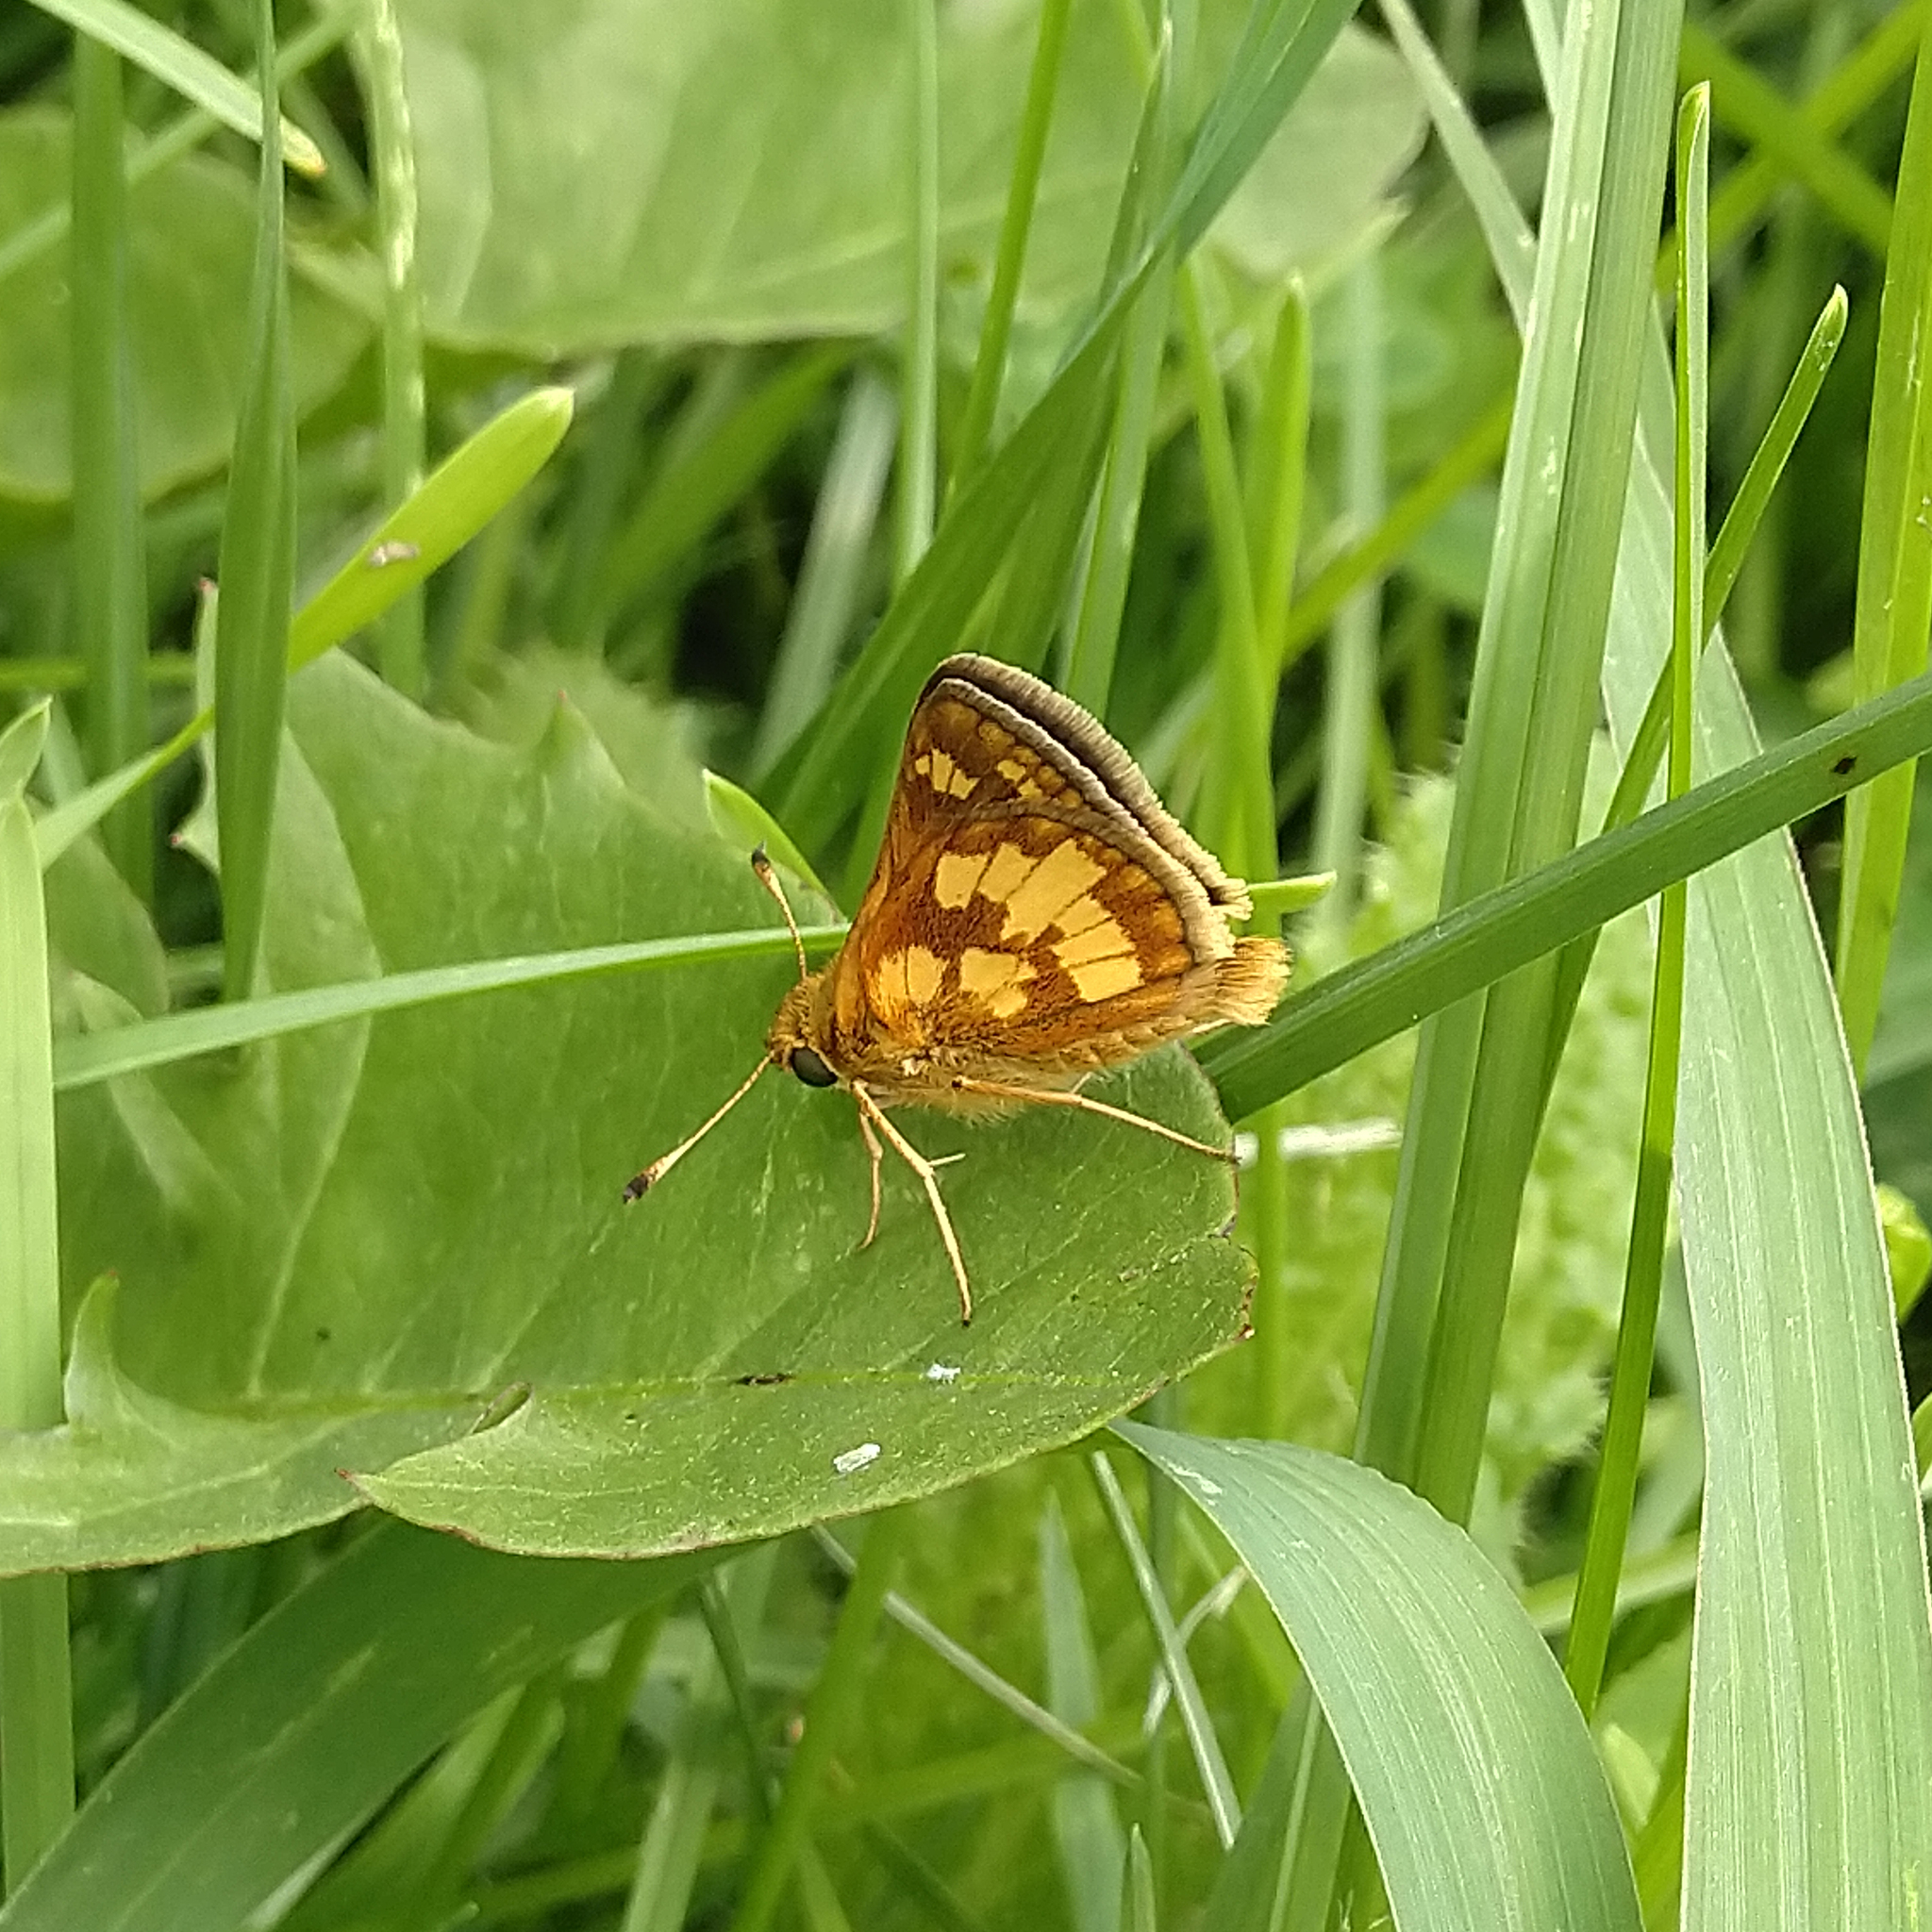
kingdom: Animalia
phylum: Arthropoda
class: Insecta
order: Lepidoptera
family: Hesperiidae
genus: Polites
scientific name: Polites coras
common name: Peck's skipper
